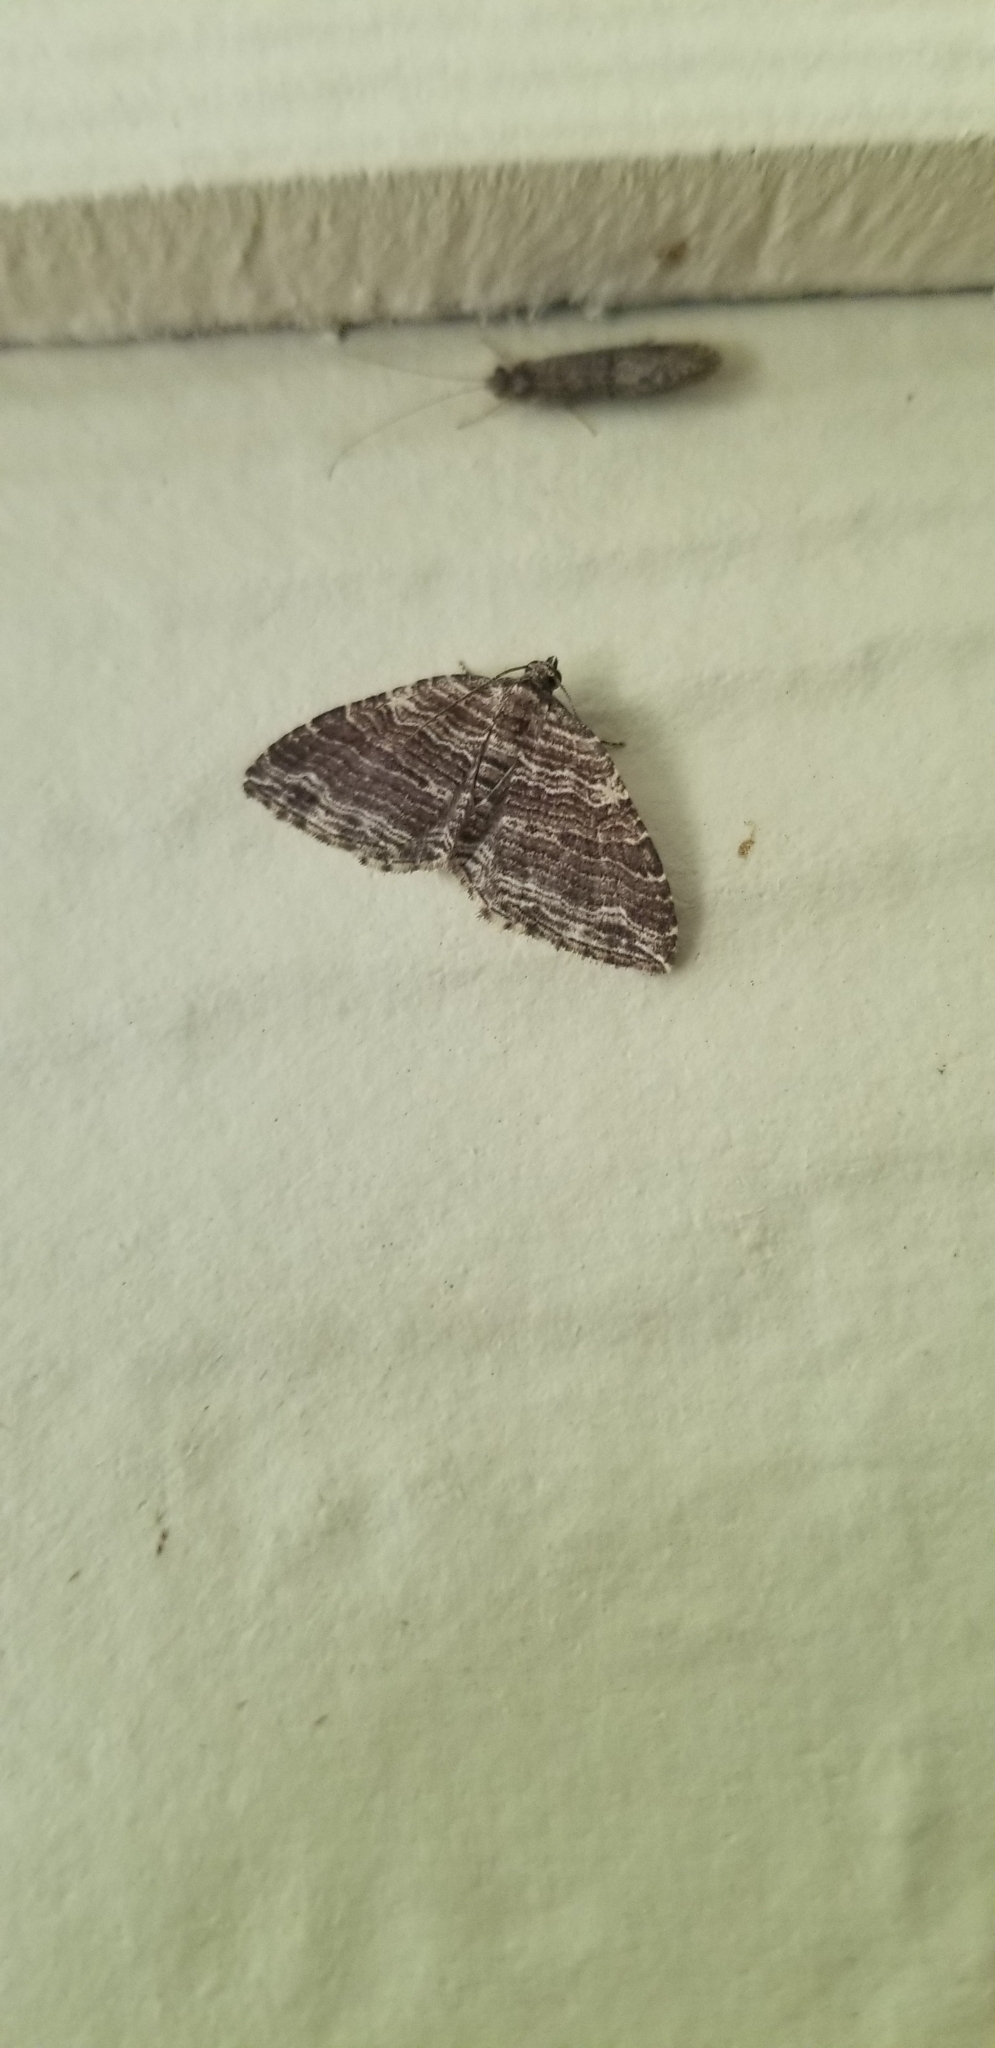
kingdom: Animalia
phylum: Arthropoda
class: Insecta
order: Lepidoptera
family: Geometridae
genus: Anticlea
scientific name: Anticlea multiferata
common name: Many-lined carpet
